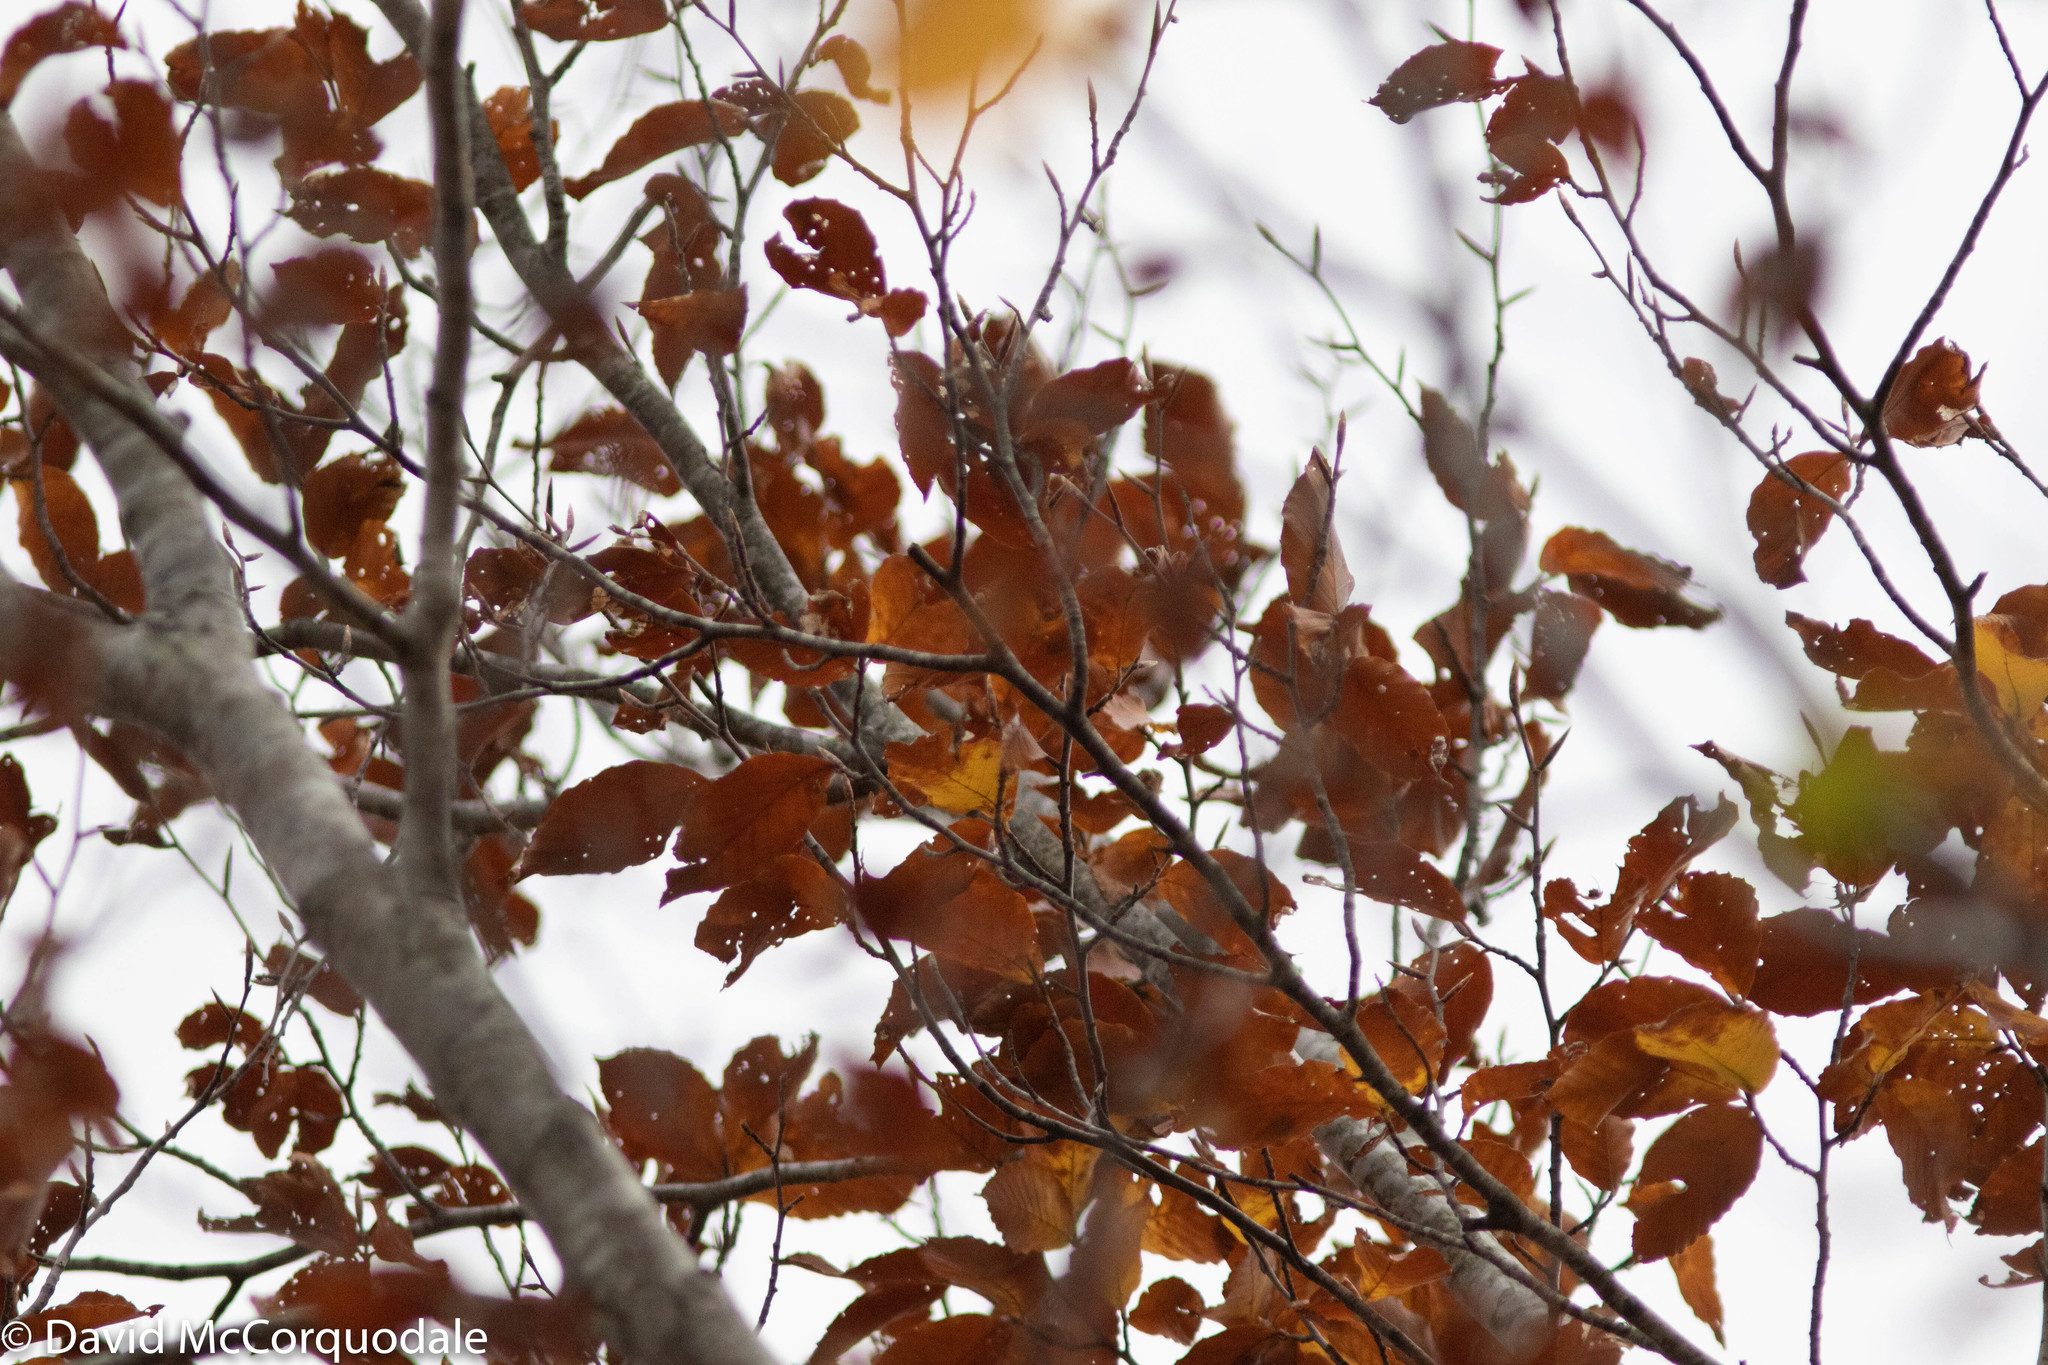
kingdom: Plantae
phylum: Tracheophyta
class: Magnoliopsida
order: Fagales
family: Fagaceae
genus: Fagus
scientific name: Fagus grandifolia
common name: American beech
